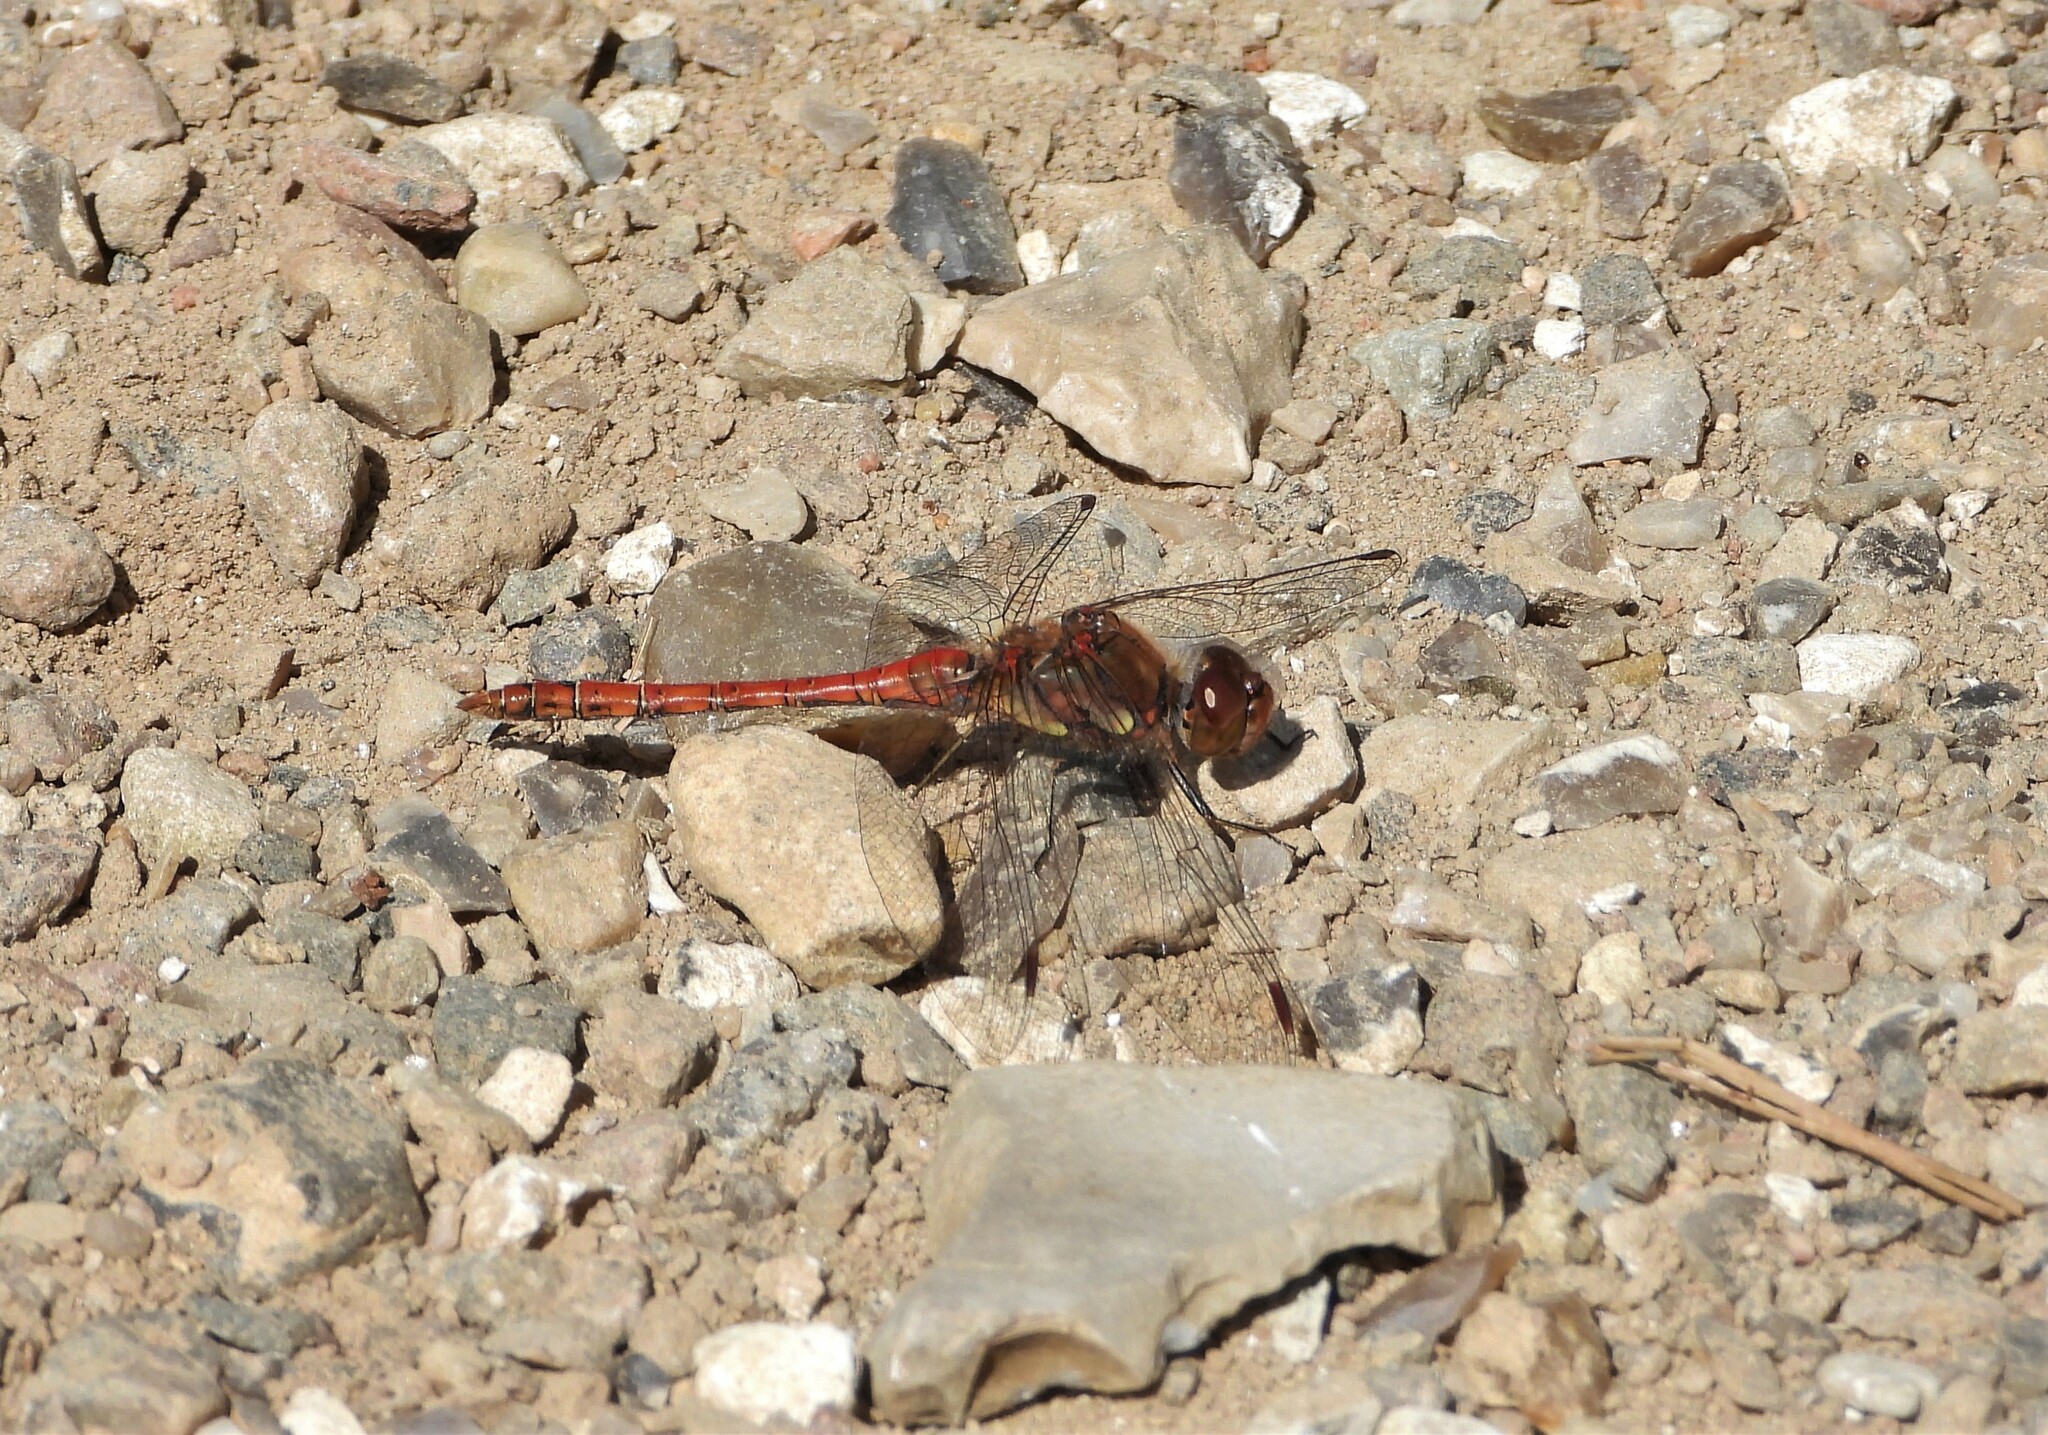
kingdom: Animalia
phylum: Arthropoda
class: Insecta
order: Odonata
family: Libellulidae
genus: Sympetrum
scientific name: Sympetrum striolatum
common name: Common darter
